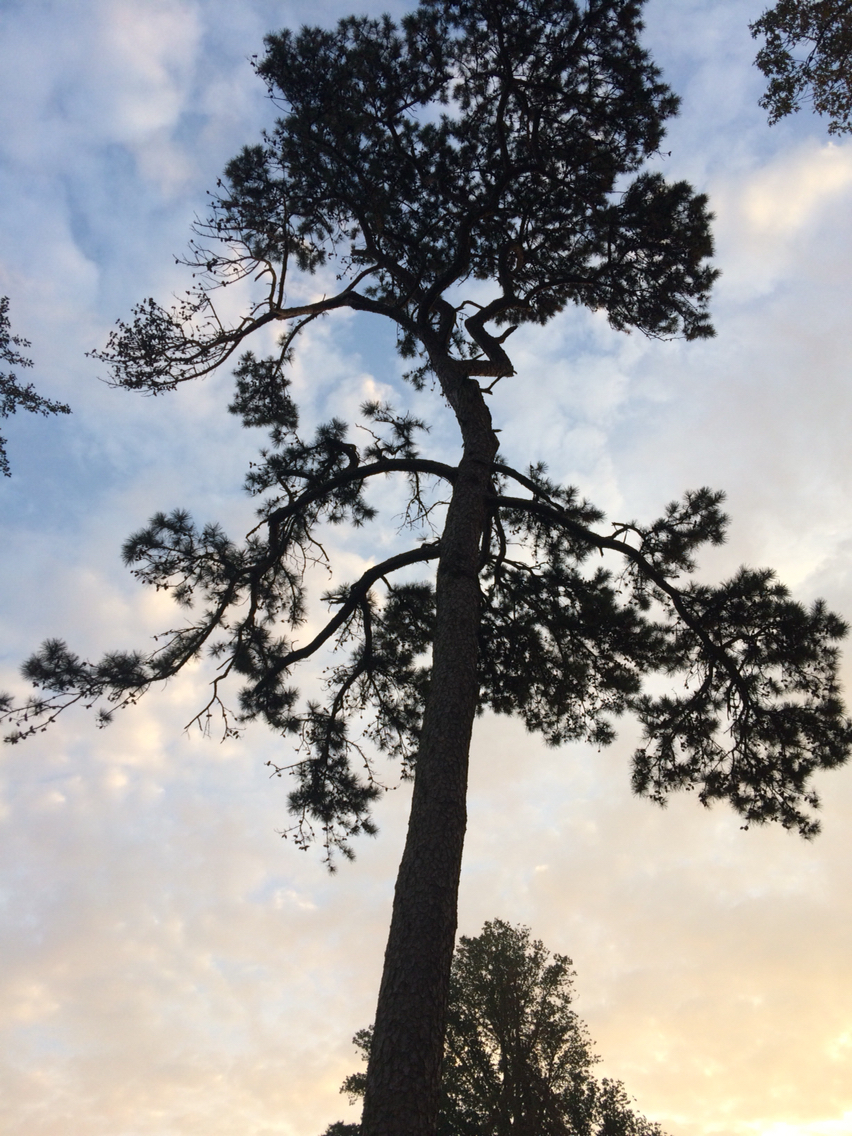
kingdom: Plantae
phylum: Tracheophyta
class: Pinopsida
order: Pinales
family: Pinaceae
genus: Pinus
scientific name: Pinus rigida
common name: Pitch pine
